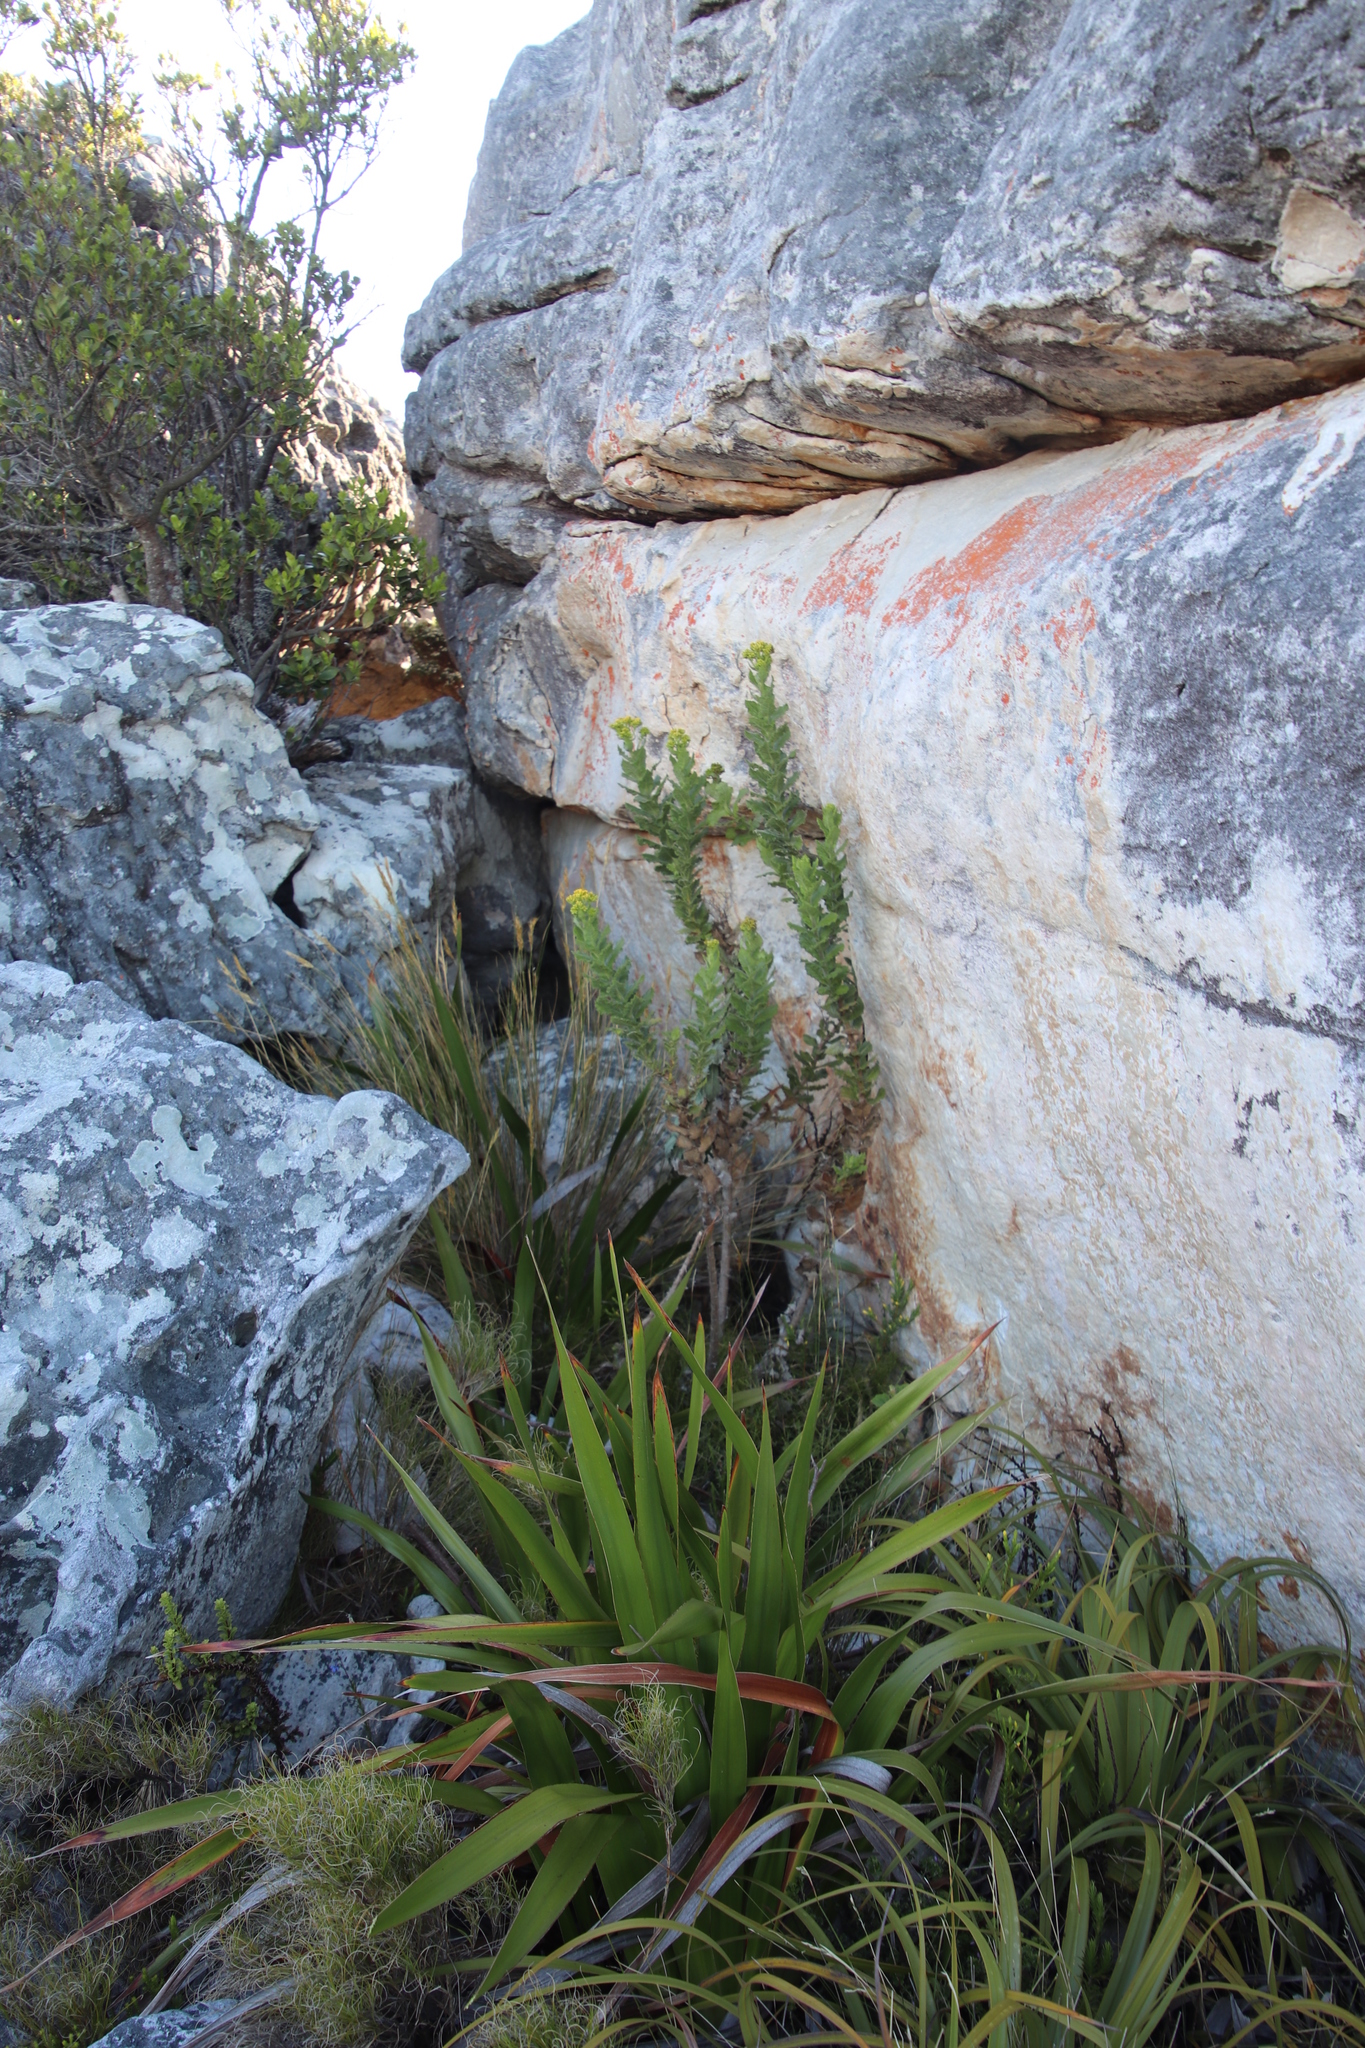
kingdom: Plantae
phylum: Tracheophyta
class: Magnoliopsida
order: Asterales
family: Asteraceae
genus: Senecio
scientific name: Senecio rigidus
